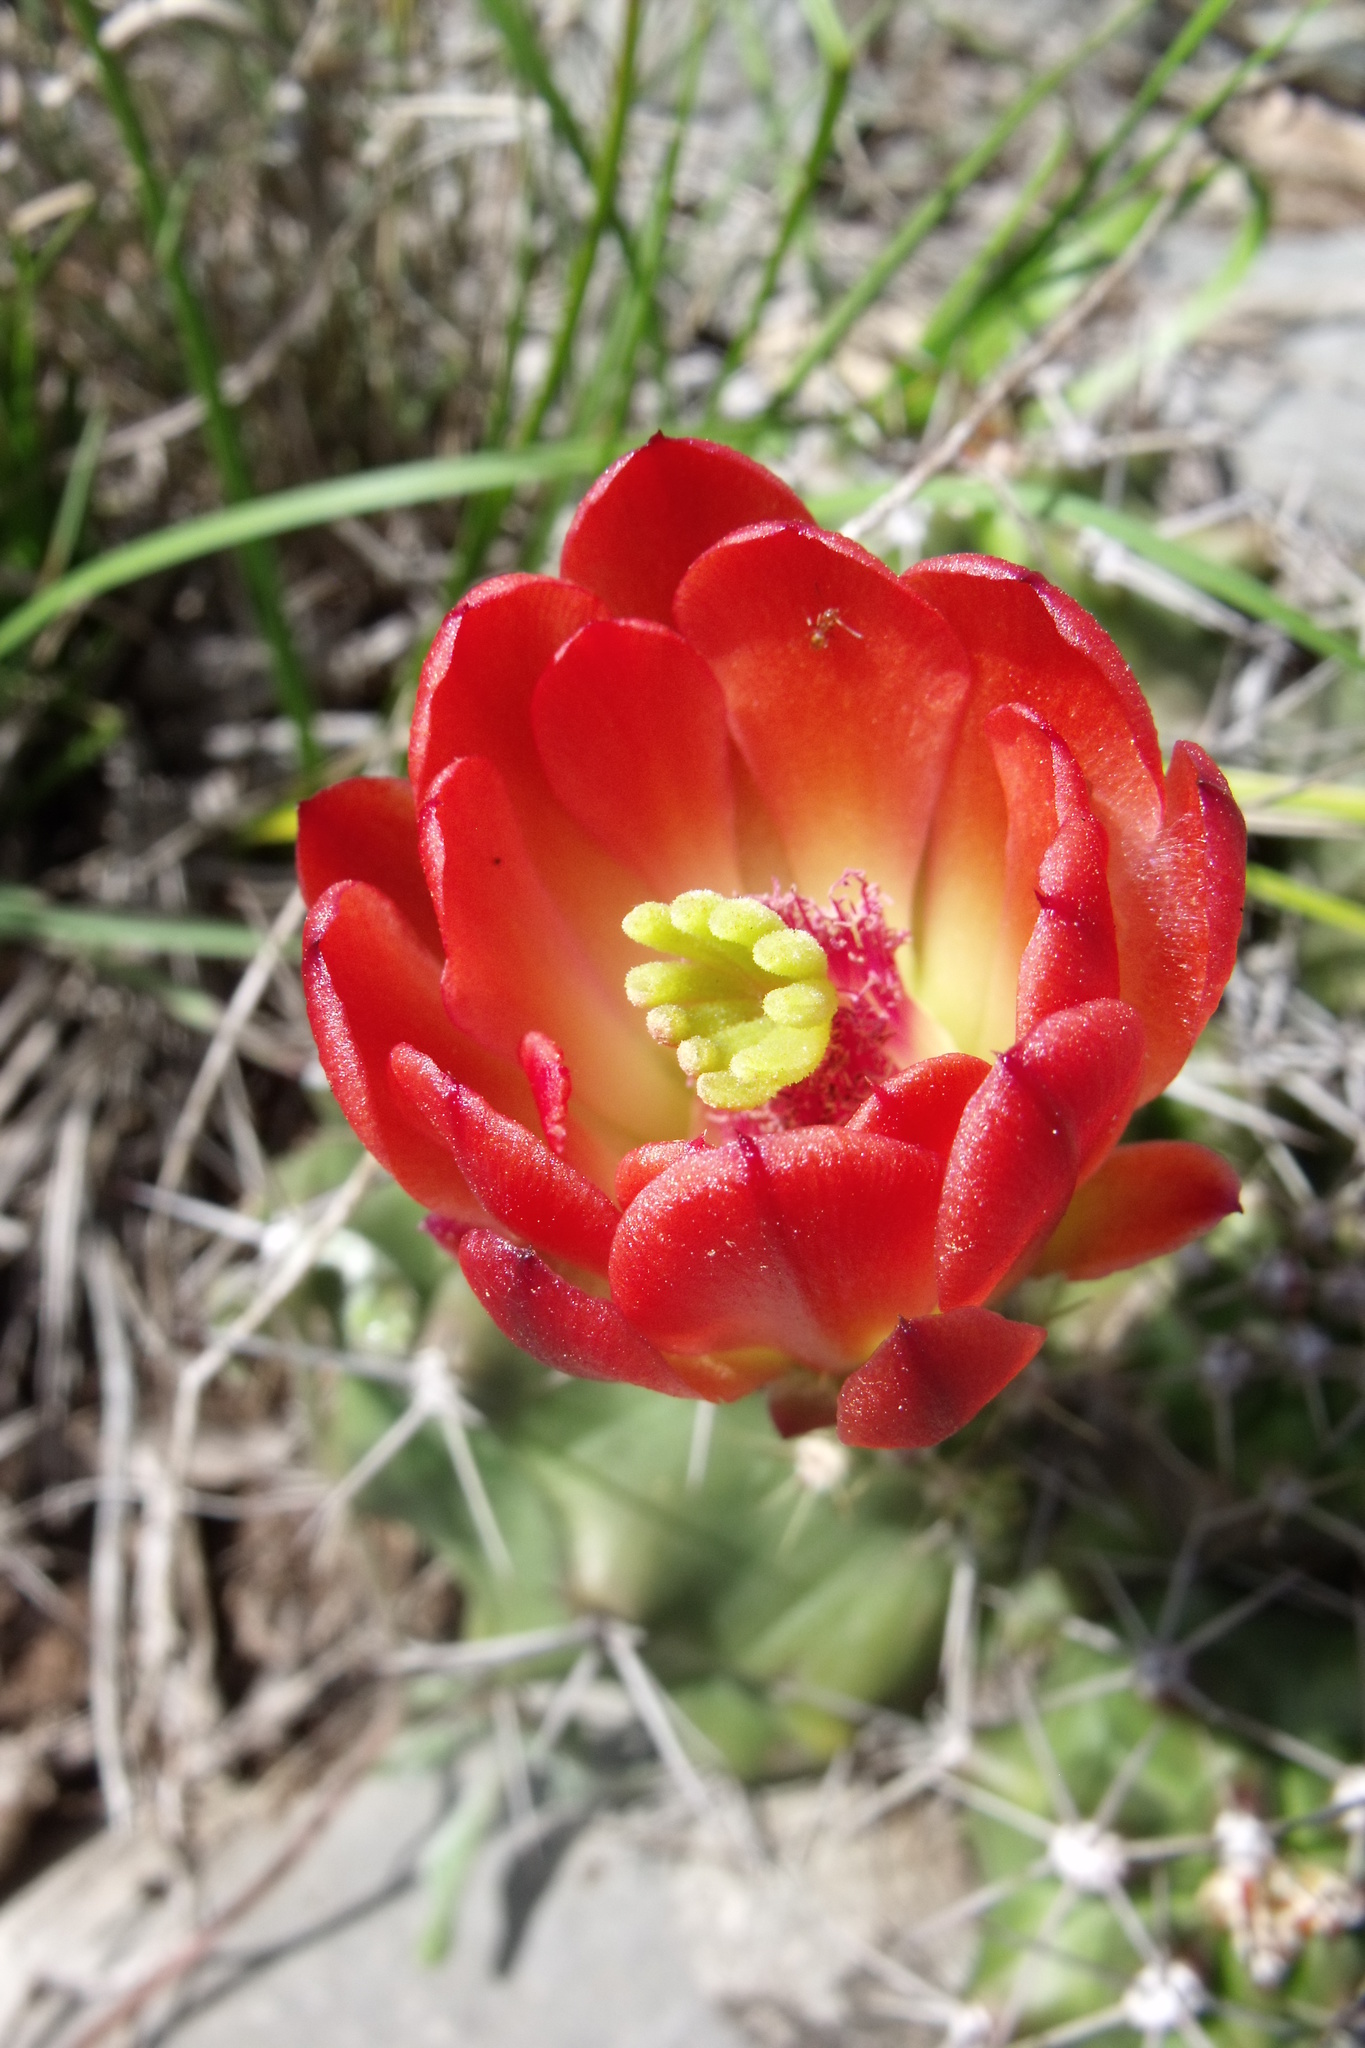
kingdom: Plantae
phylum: Tracheophyta
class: Magnoliopsida
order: Caryophyllales
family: Cactaceae
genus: Echinocereus
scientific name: Echinocereus coccineus
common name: Scarlet hedgehog cactus
